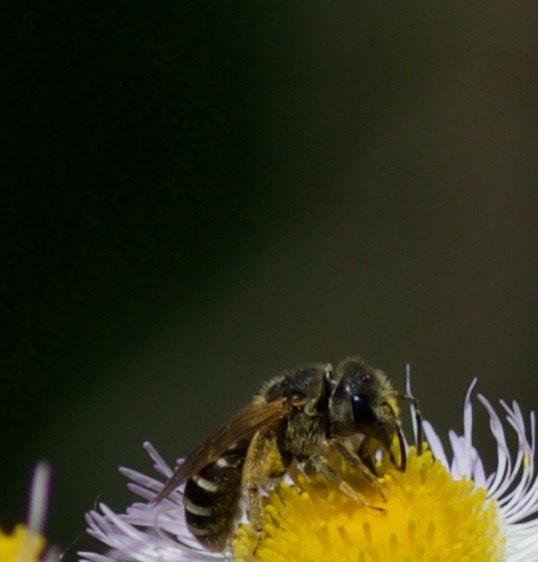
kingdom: Animalia
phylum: Arthropoda
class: Insecta
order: Hymenoptera
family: Halictidae
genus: Halictus
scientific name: Halictus ligatus
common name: Ligated furrow bee
